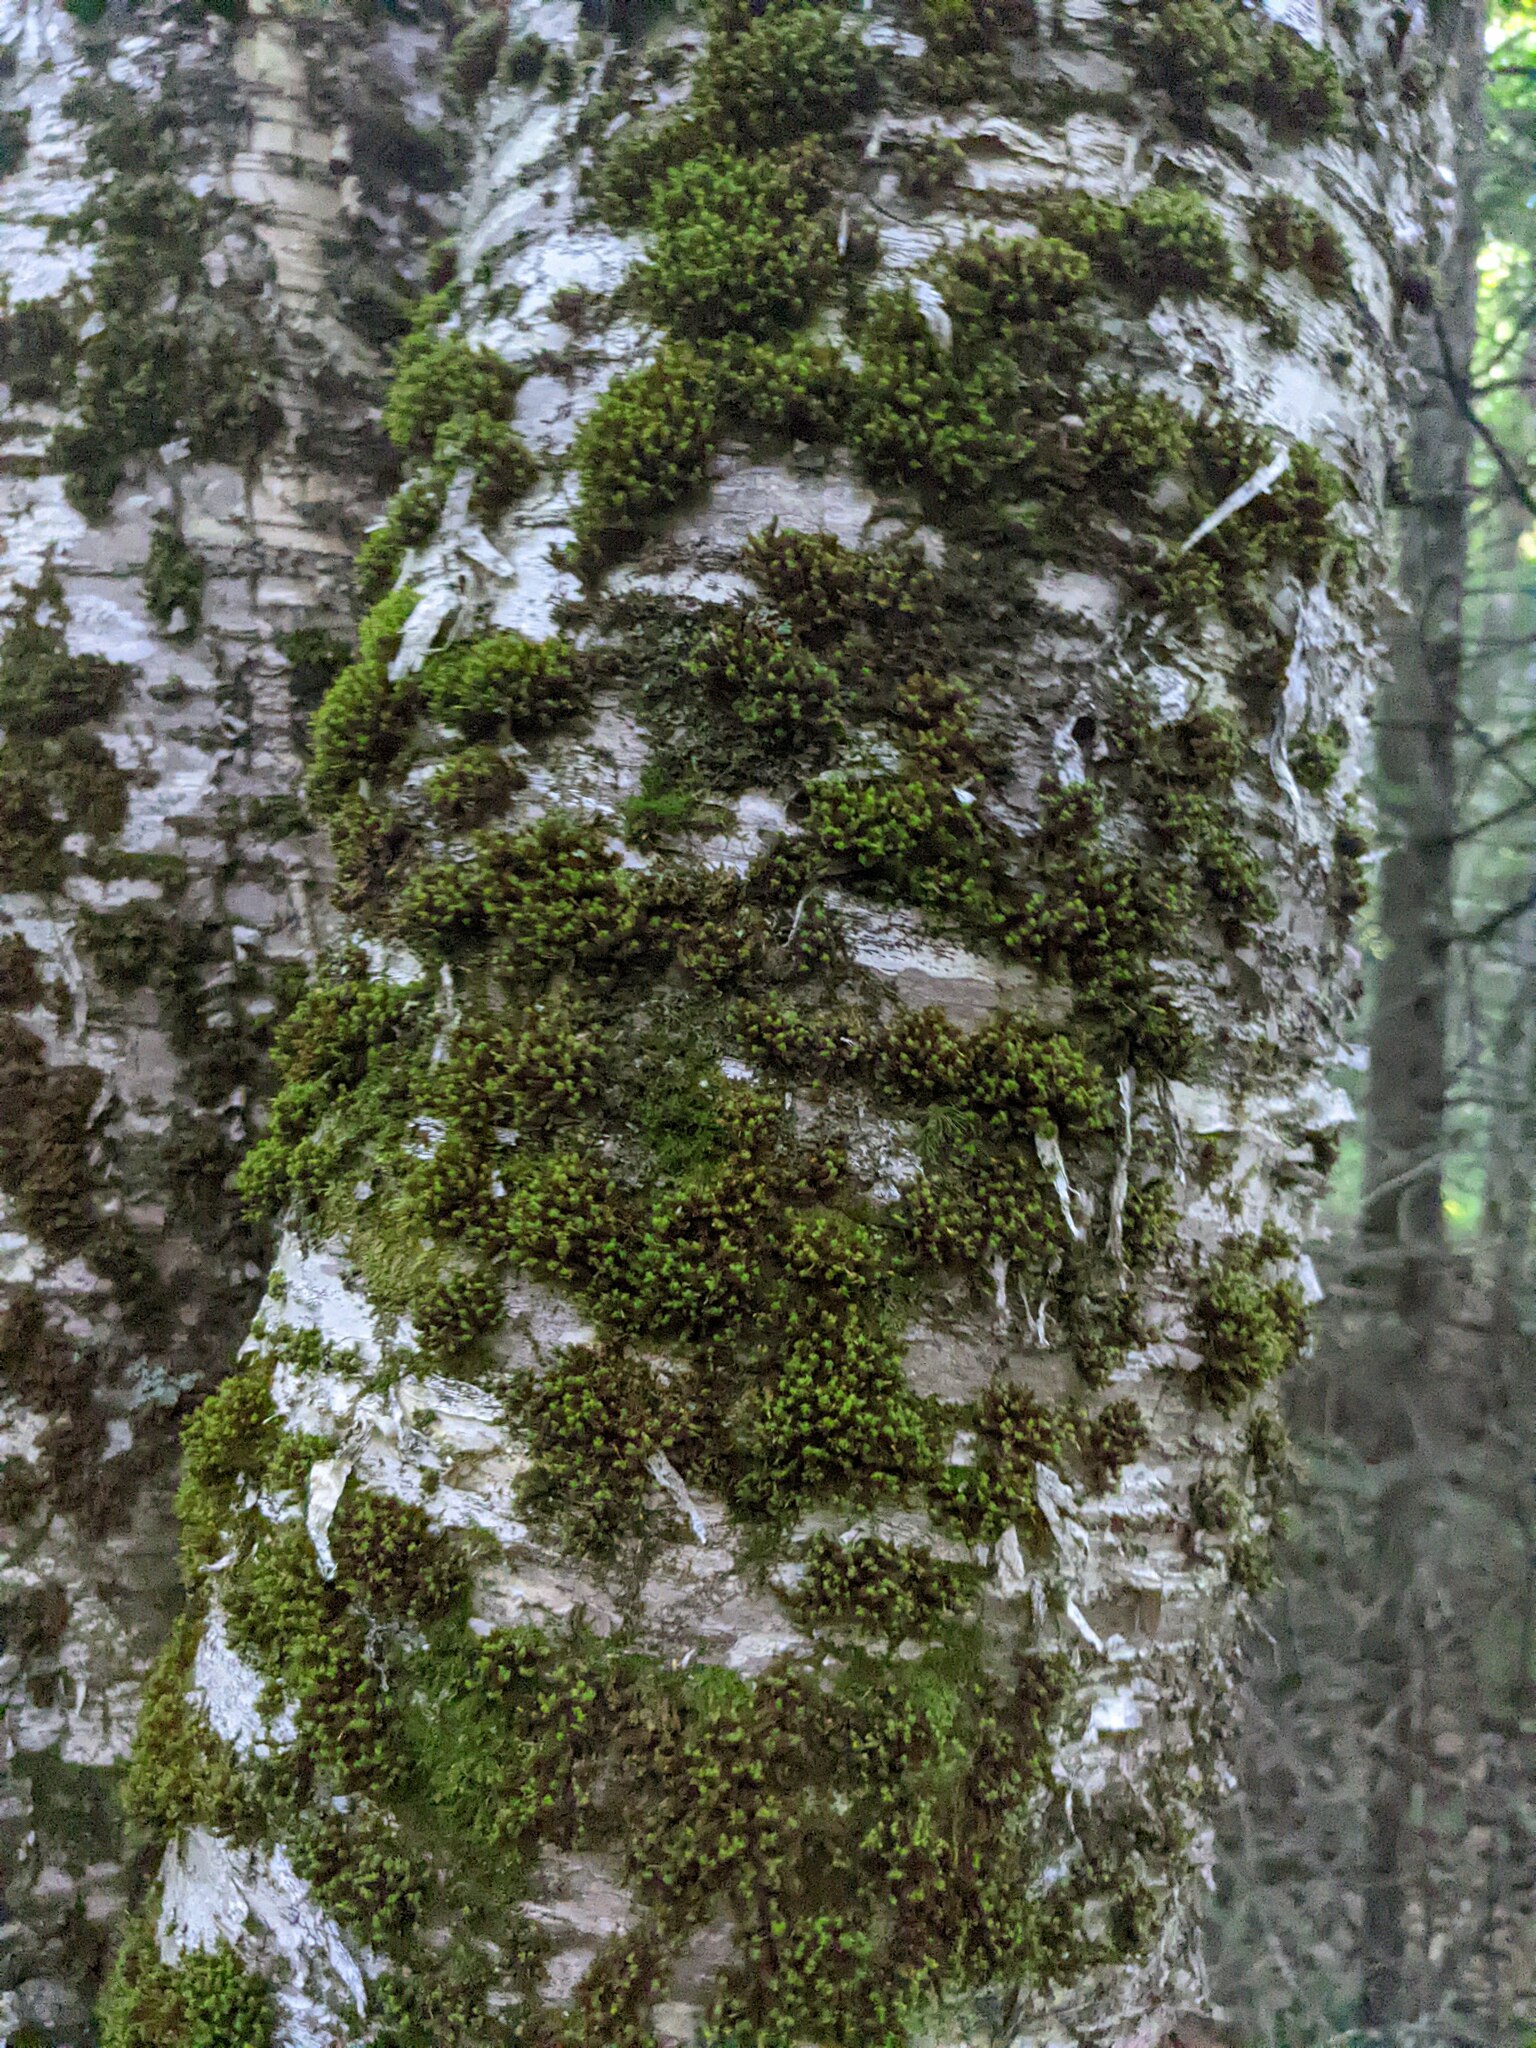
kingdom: Plantae
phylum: Bryophyta
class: Bryopsida
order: Orthotrichales
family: Orthotrichaceae
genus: Ulota
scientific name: Ulota crispa
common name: Crisped pincushion moss
